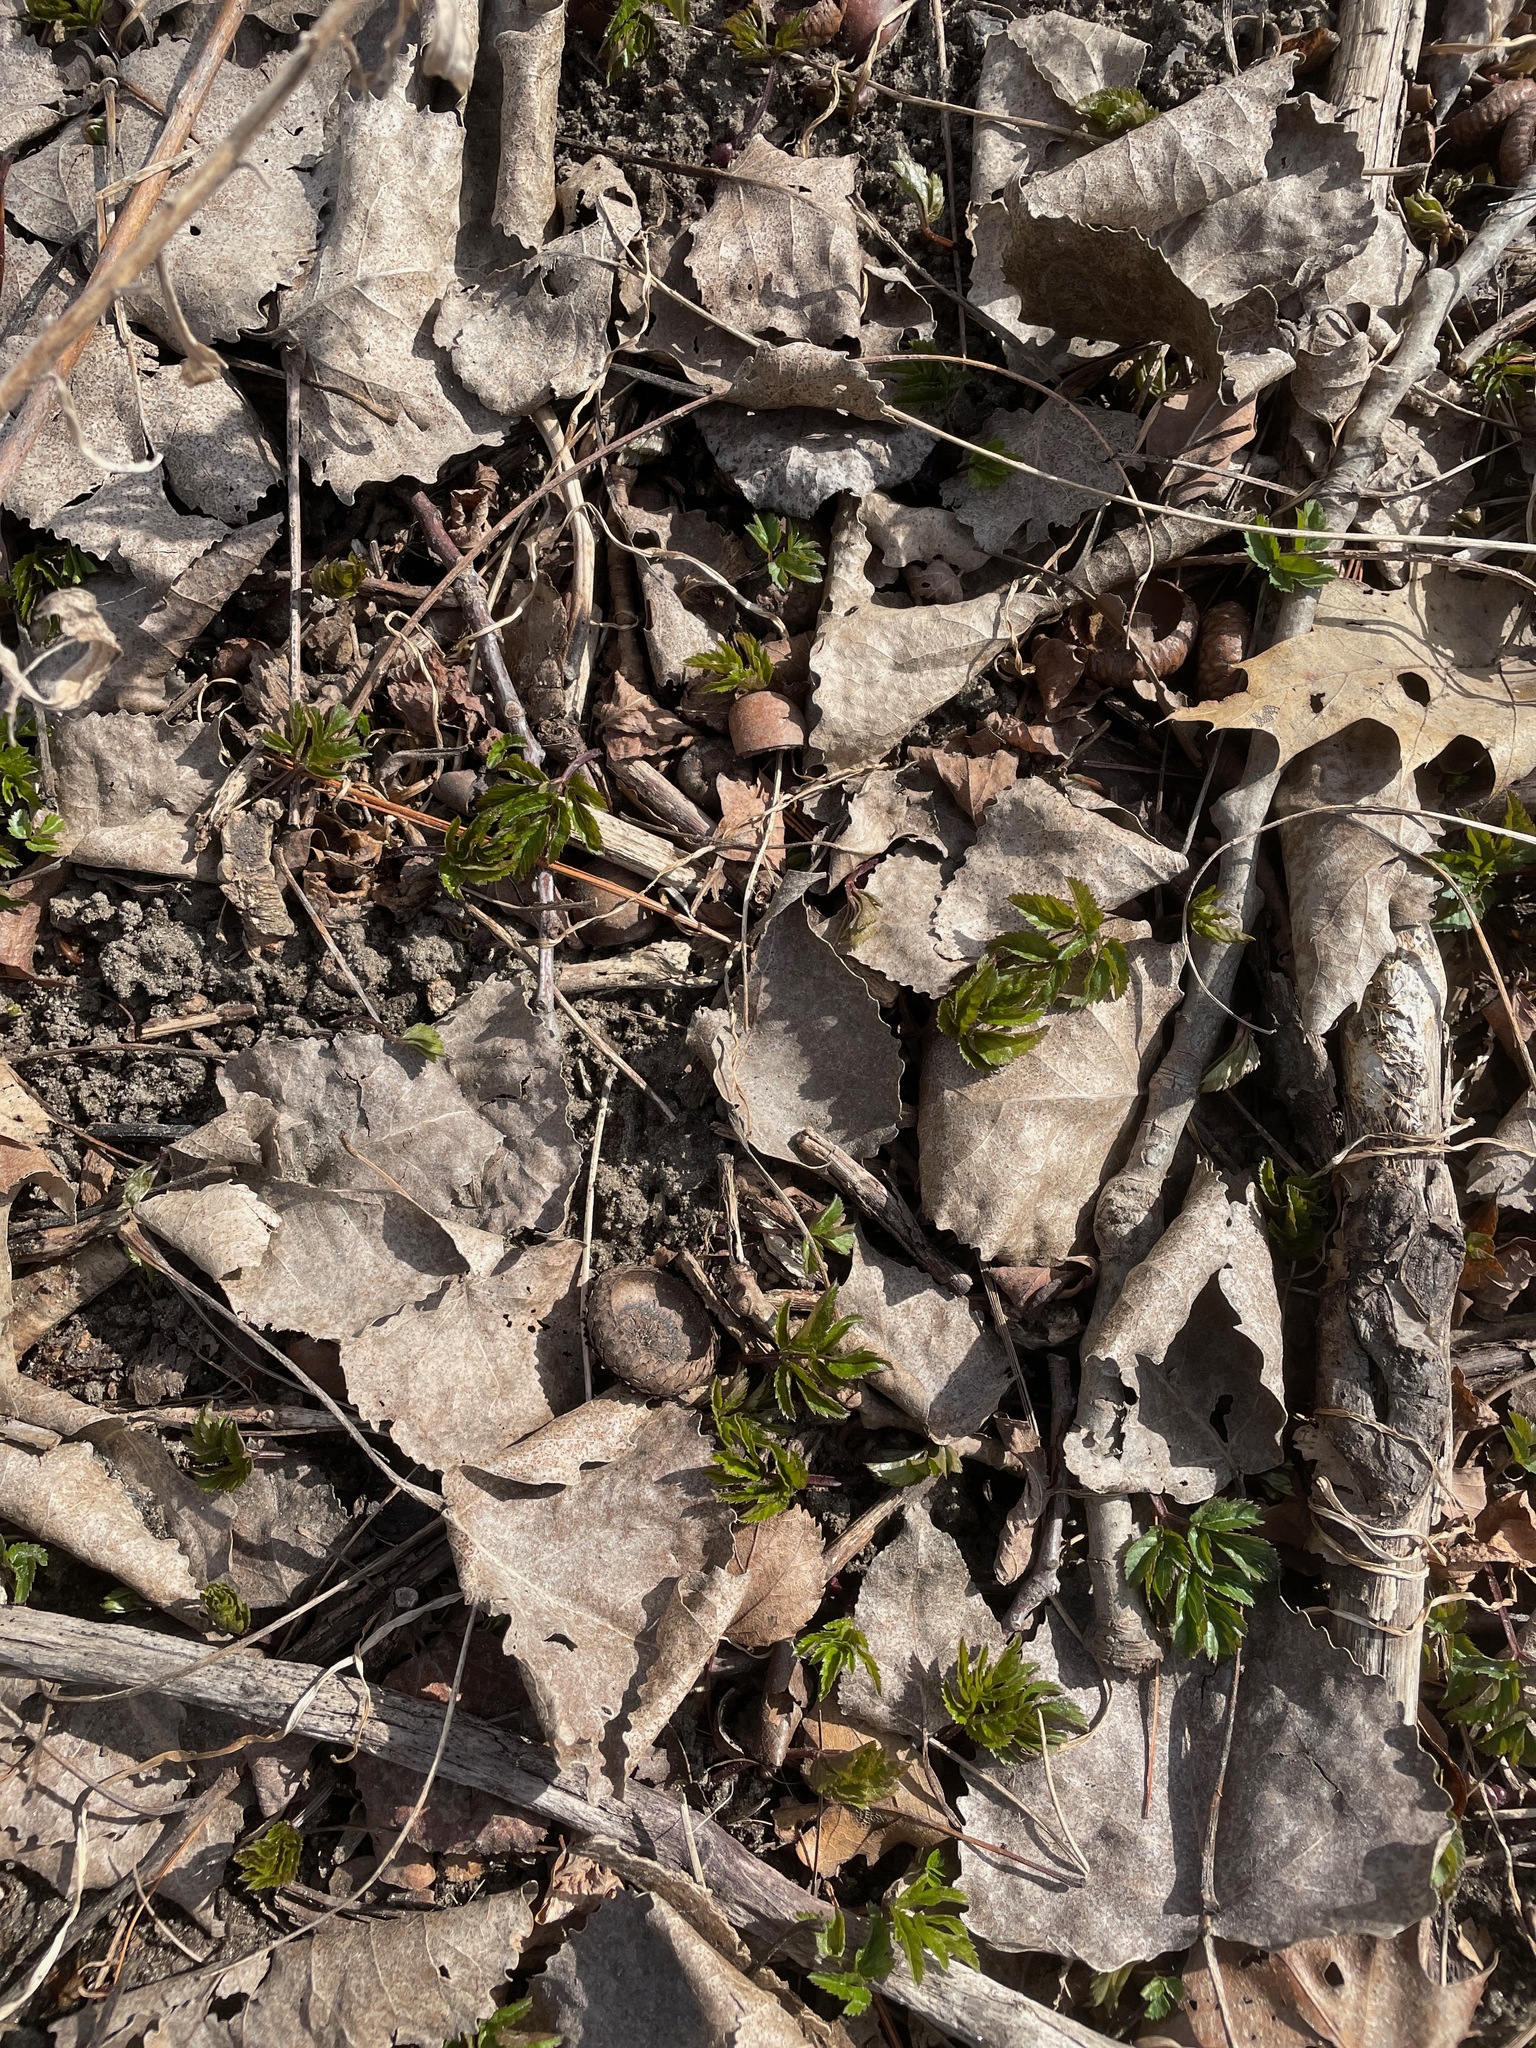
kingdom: Plantae
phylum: Tracheophyta
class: Magnoliopsida
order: Apiales
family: Apiaceae
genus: Aegopodium
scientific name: Aegopodium podagraria
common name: Ground-elder
